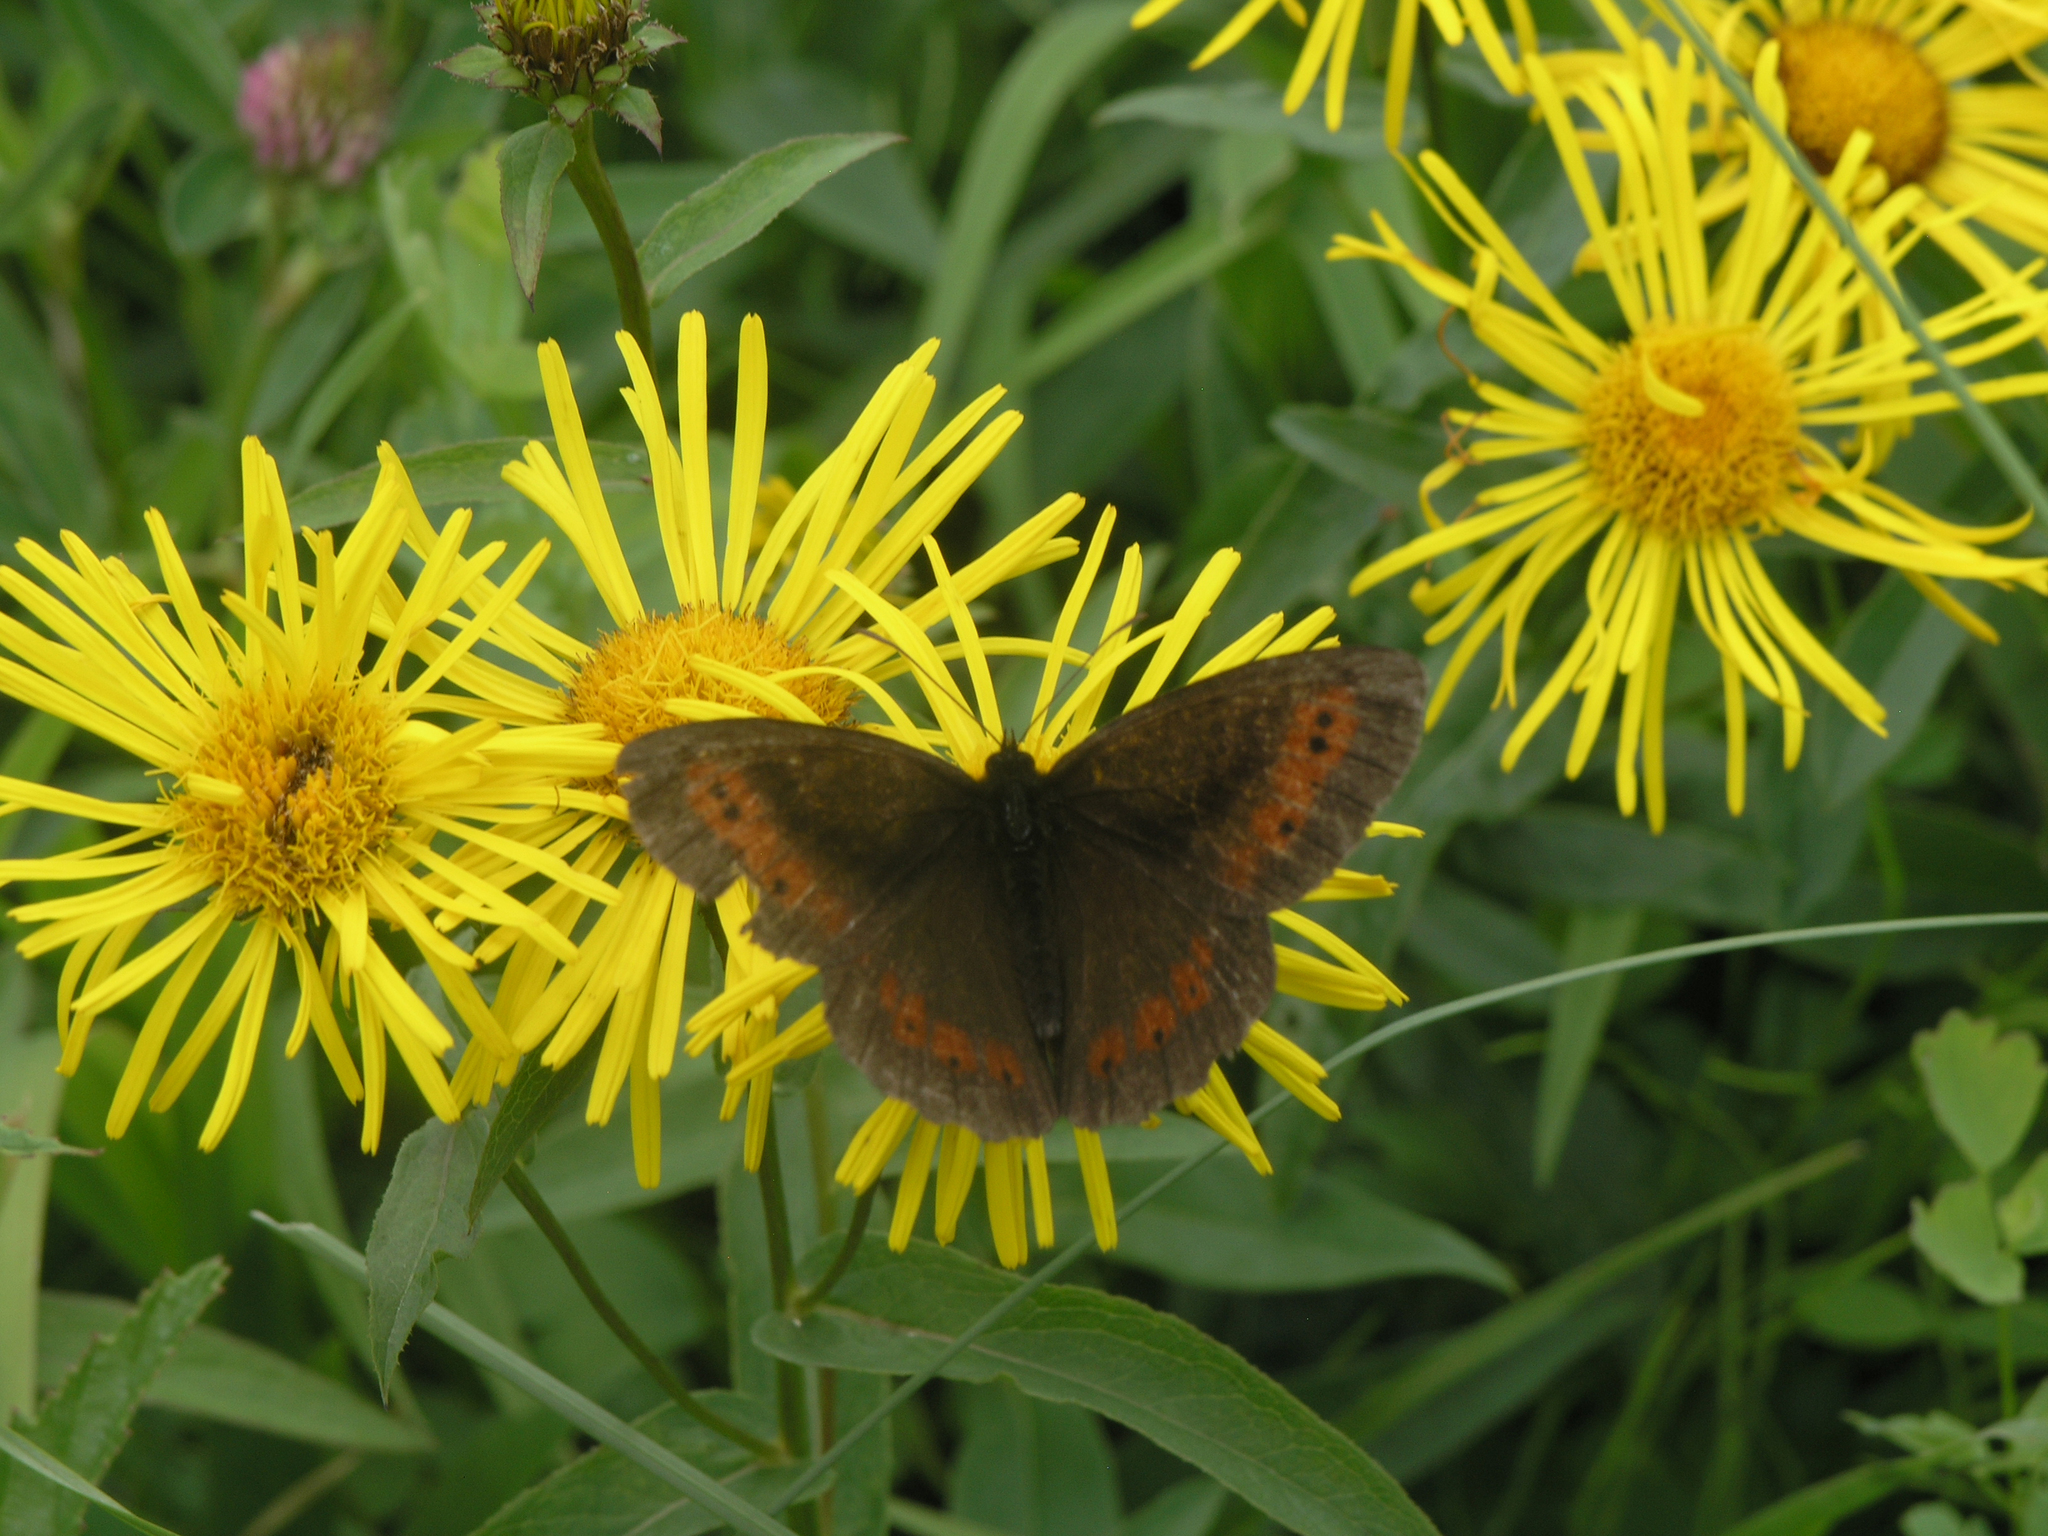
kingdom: Animalia
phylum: Arthropoda
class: Insecta
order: Lepidoptera
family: Nymphalidae
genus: Erebia
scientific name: Erebia ligea
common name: Arran brown
